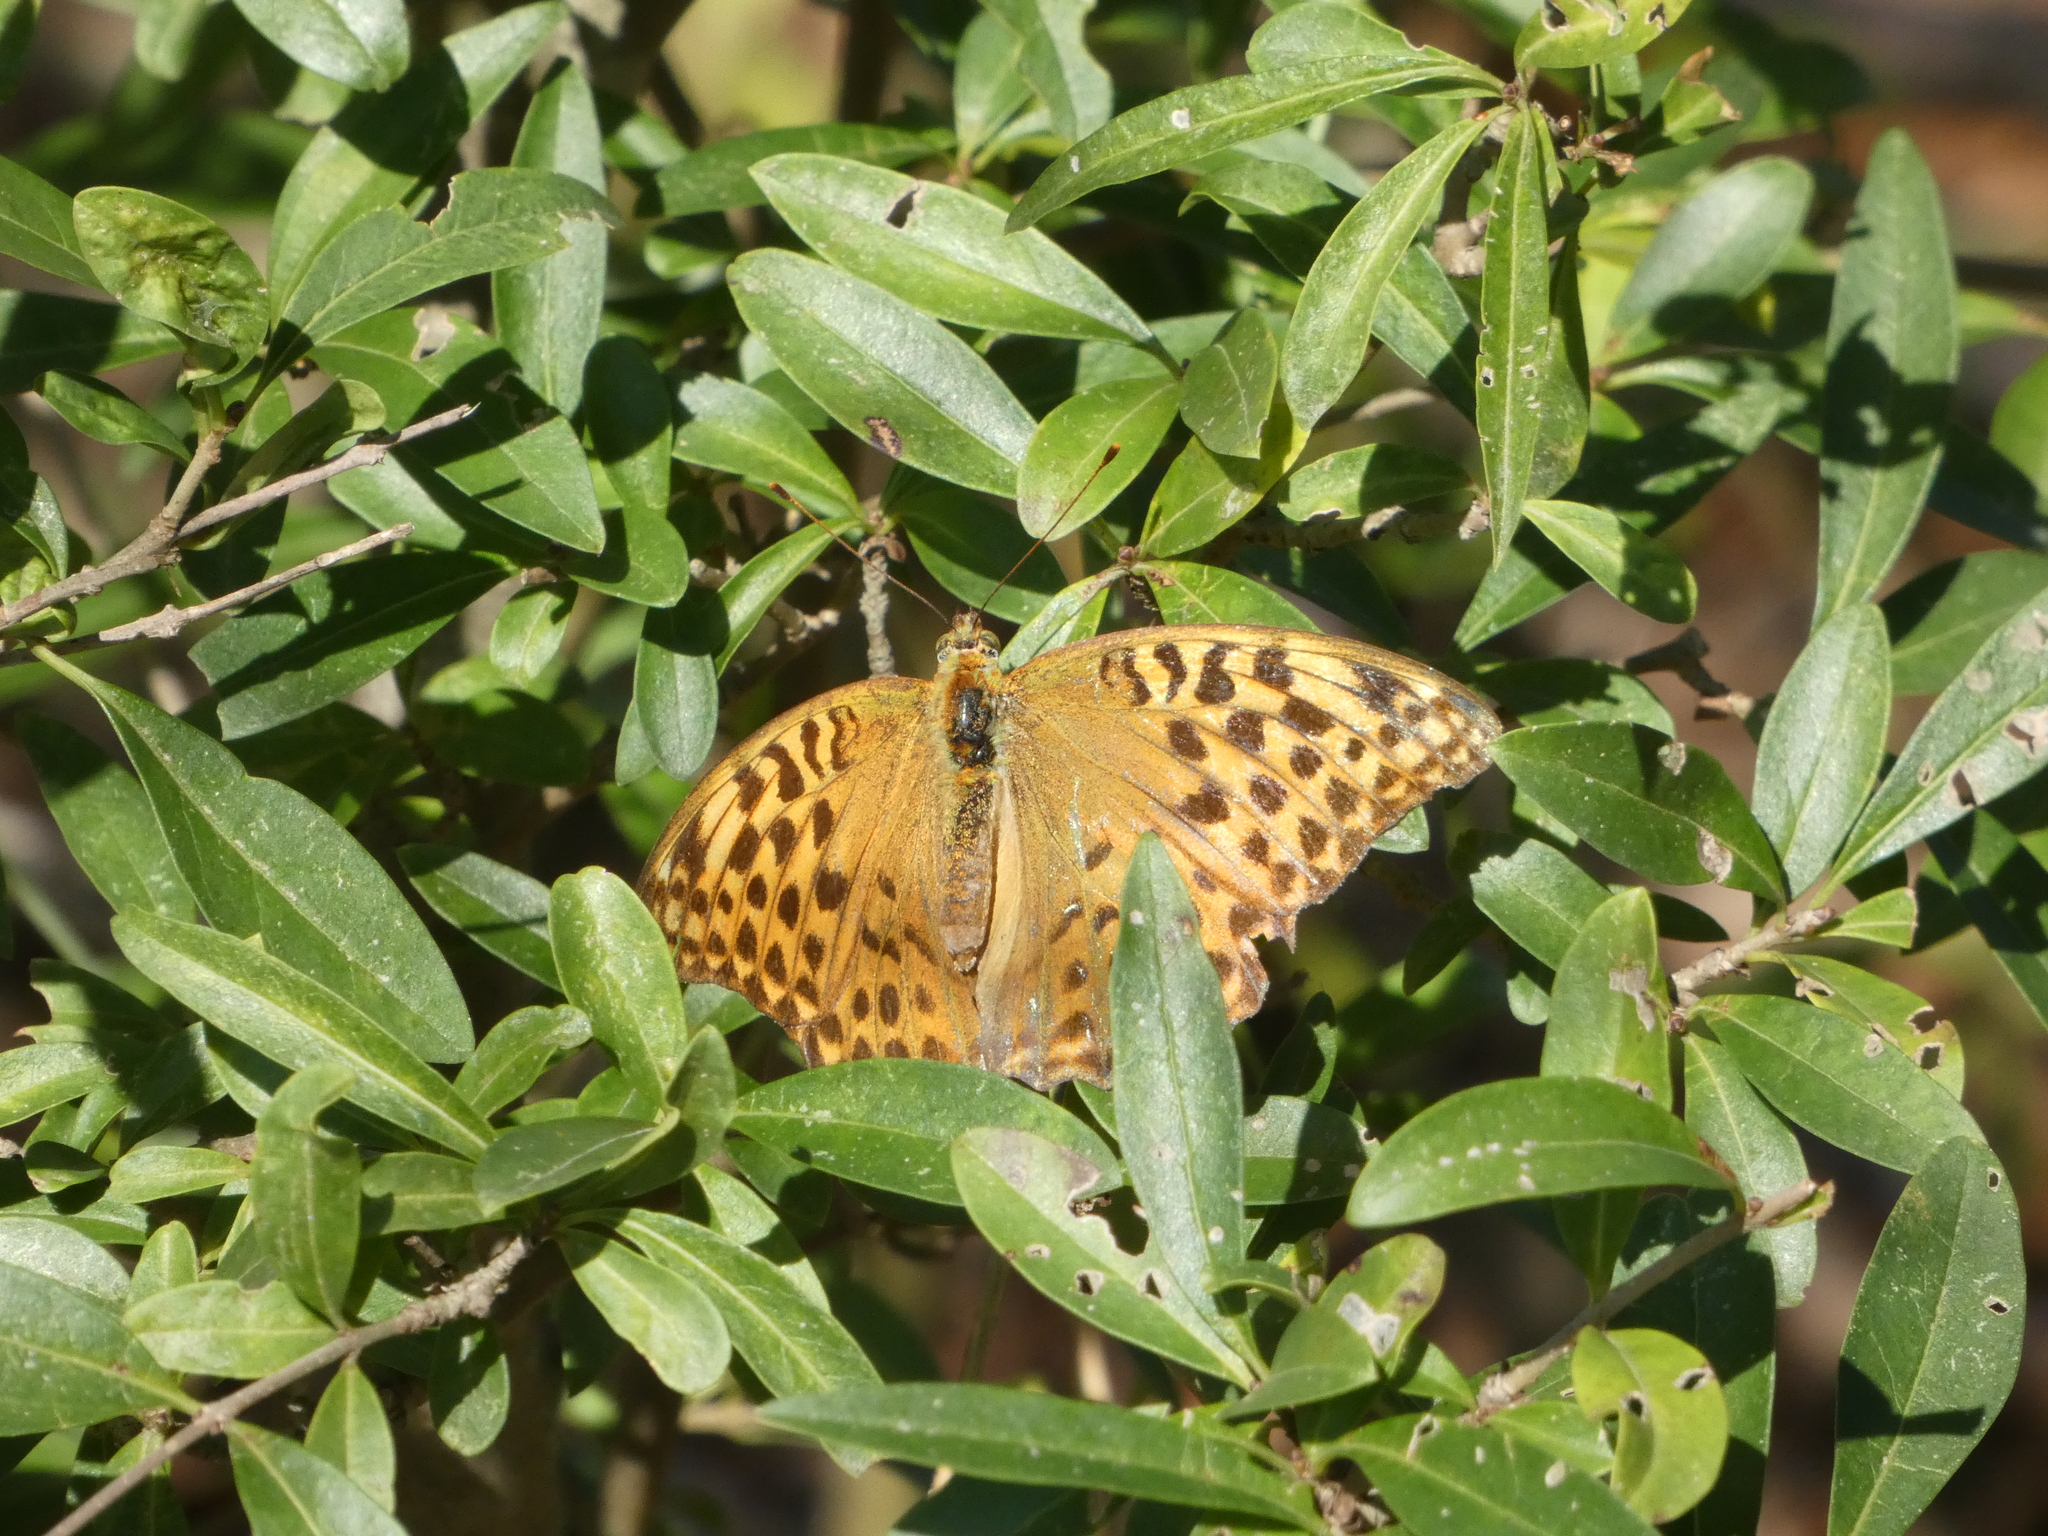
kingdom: Animalia
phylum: Arthropoda
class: Insecta
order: Lepidoptera
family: Nymphalidae
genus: Argynnis
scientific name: Argynnis paphia
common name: Silver-washed fritillary
